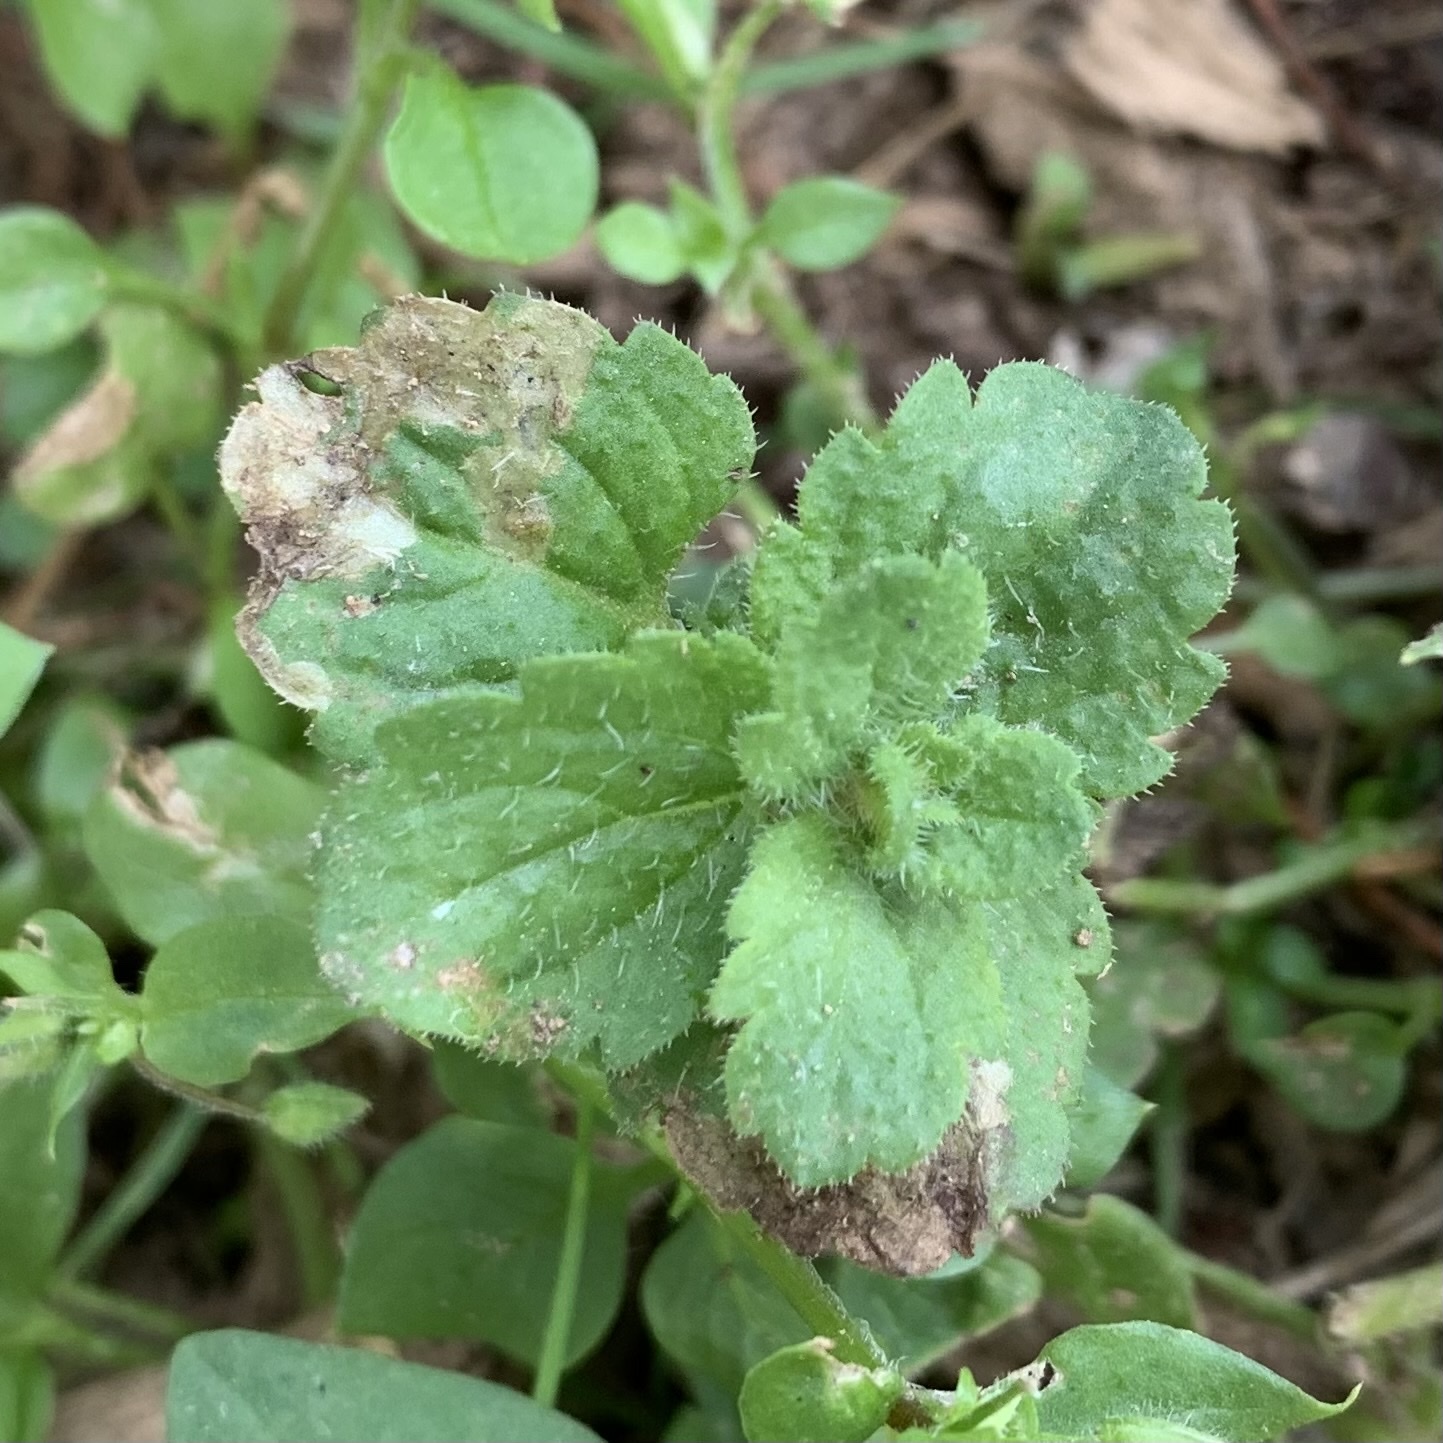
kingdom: Animalia
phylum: Arthropoda
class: Insecta
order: Diptera
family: Agromyzidae
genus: Phytomyza
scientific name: Phytomyza crassiseta
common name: Leaf-miner fly
